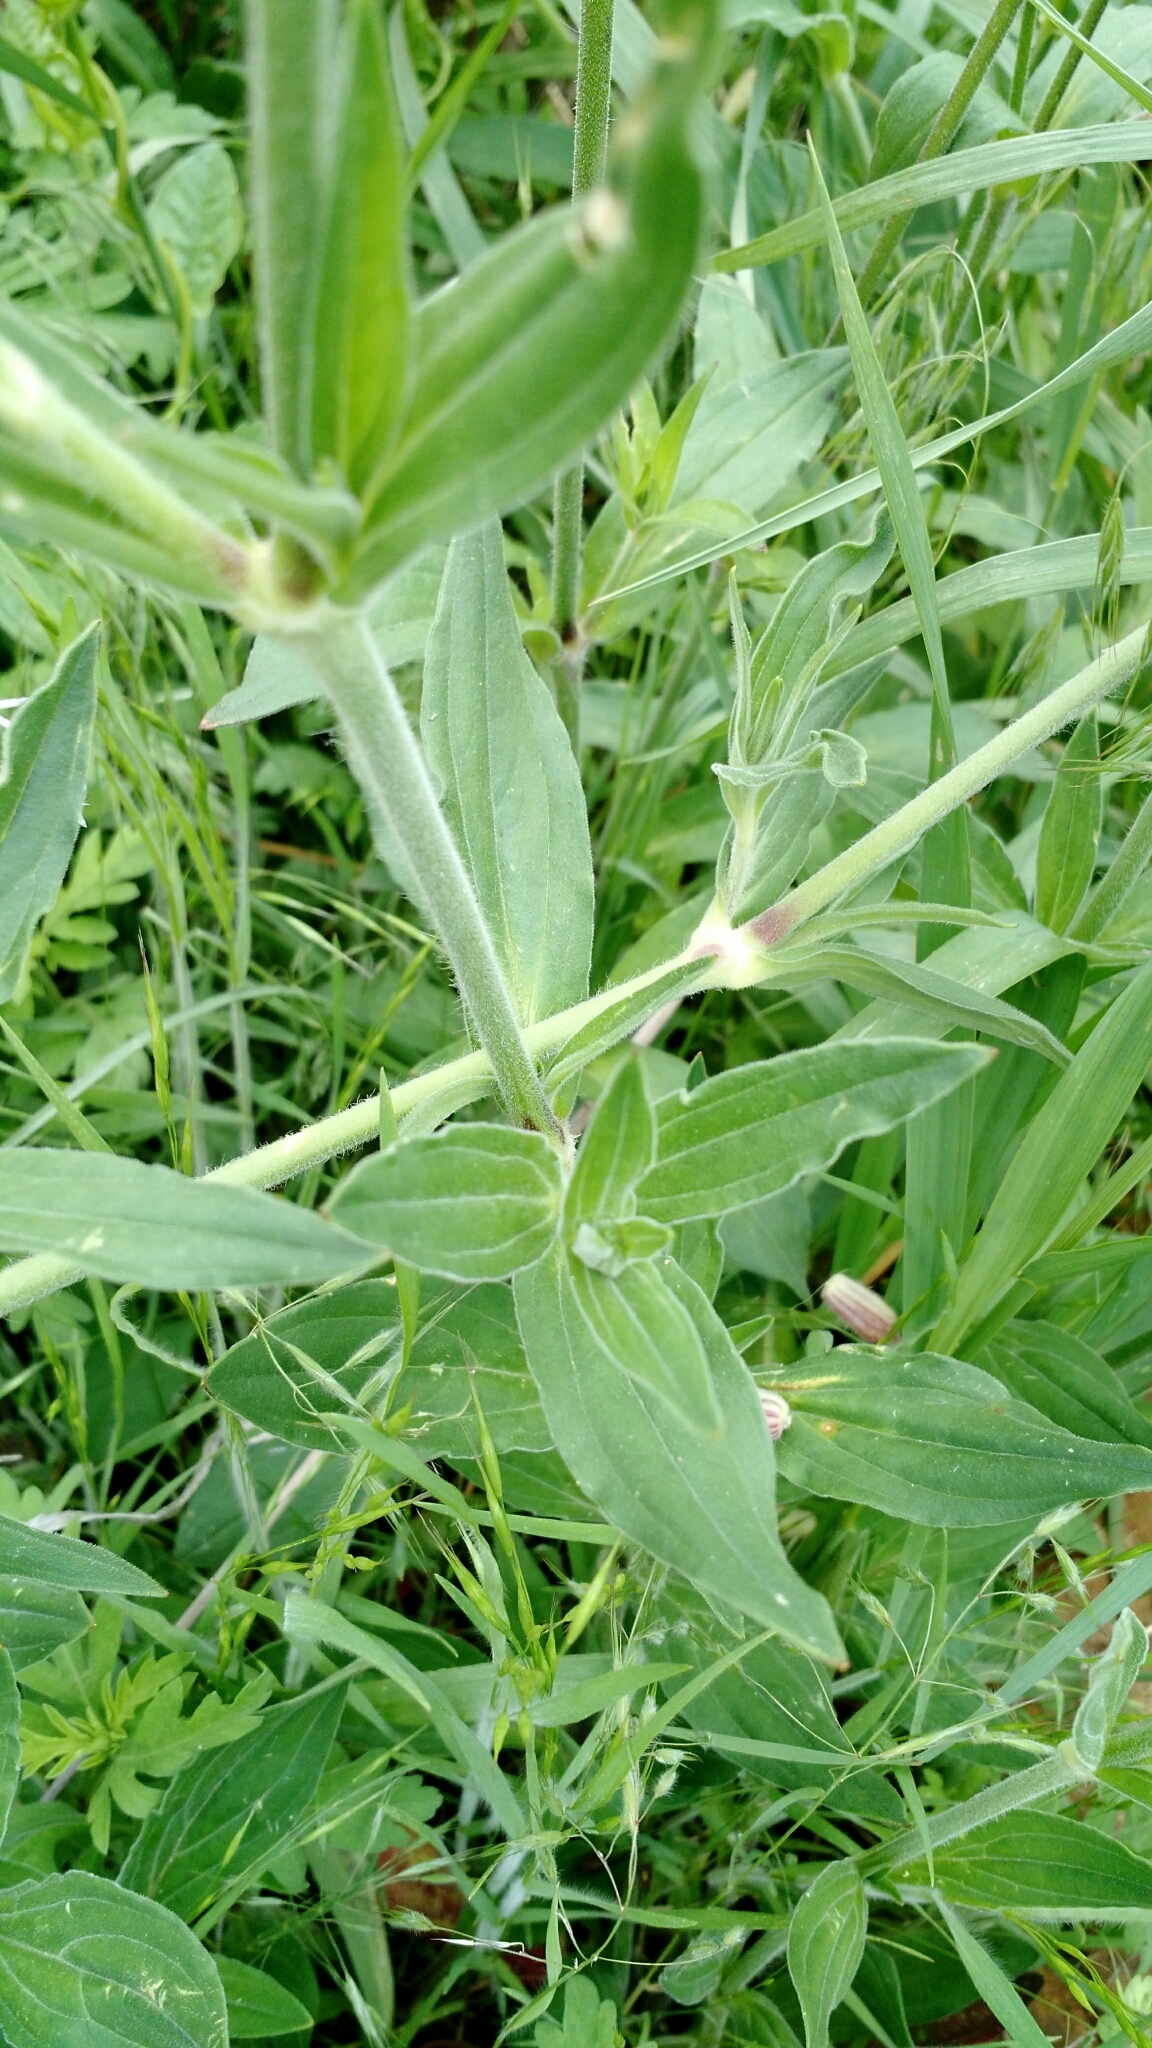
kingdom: Plantae
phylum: Tracheophyta
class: Magnoliopsida
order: Caryophyllales
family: Caryophyllaceae
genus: Silene
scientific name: Silene latifolia
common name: White campion
